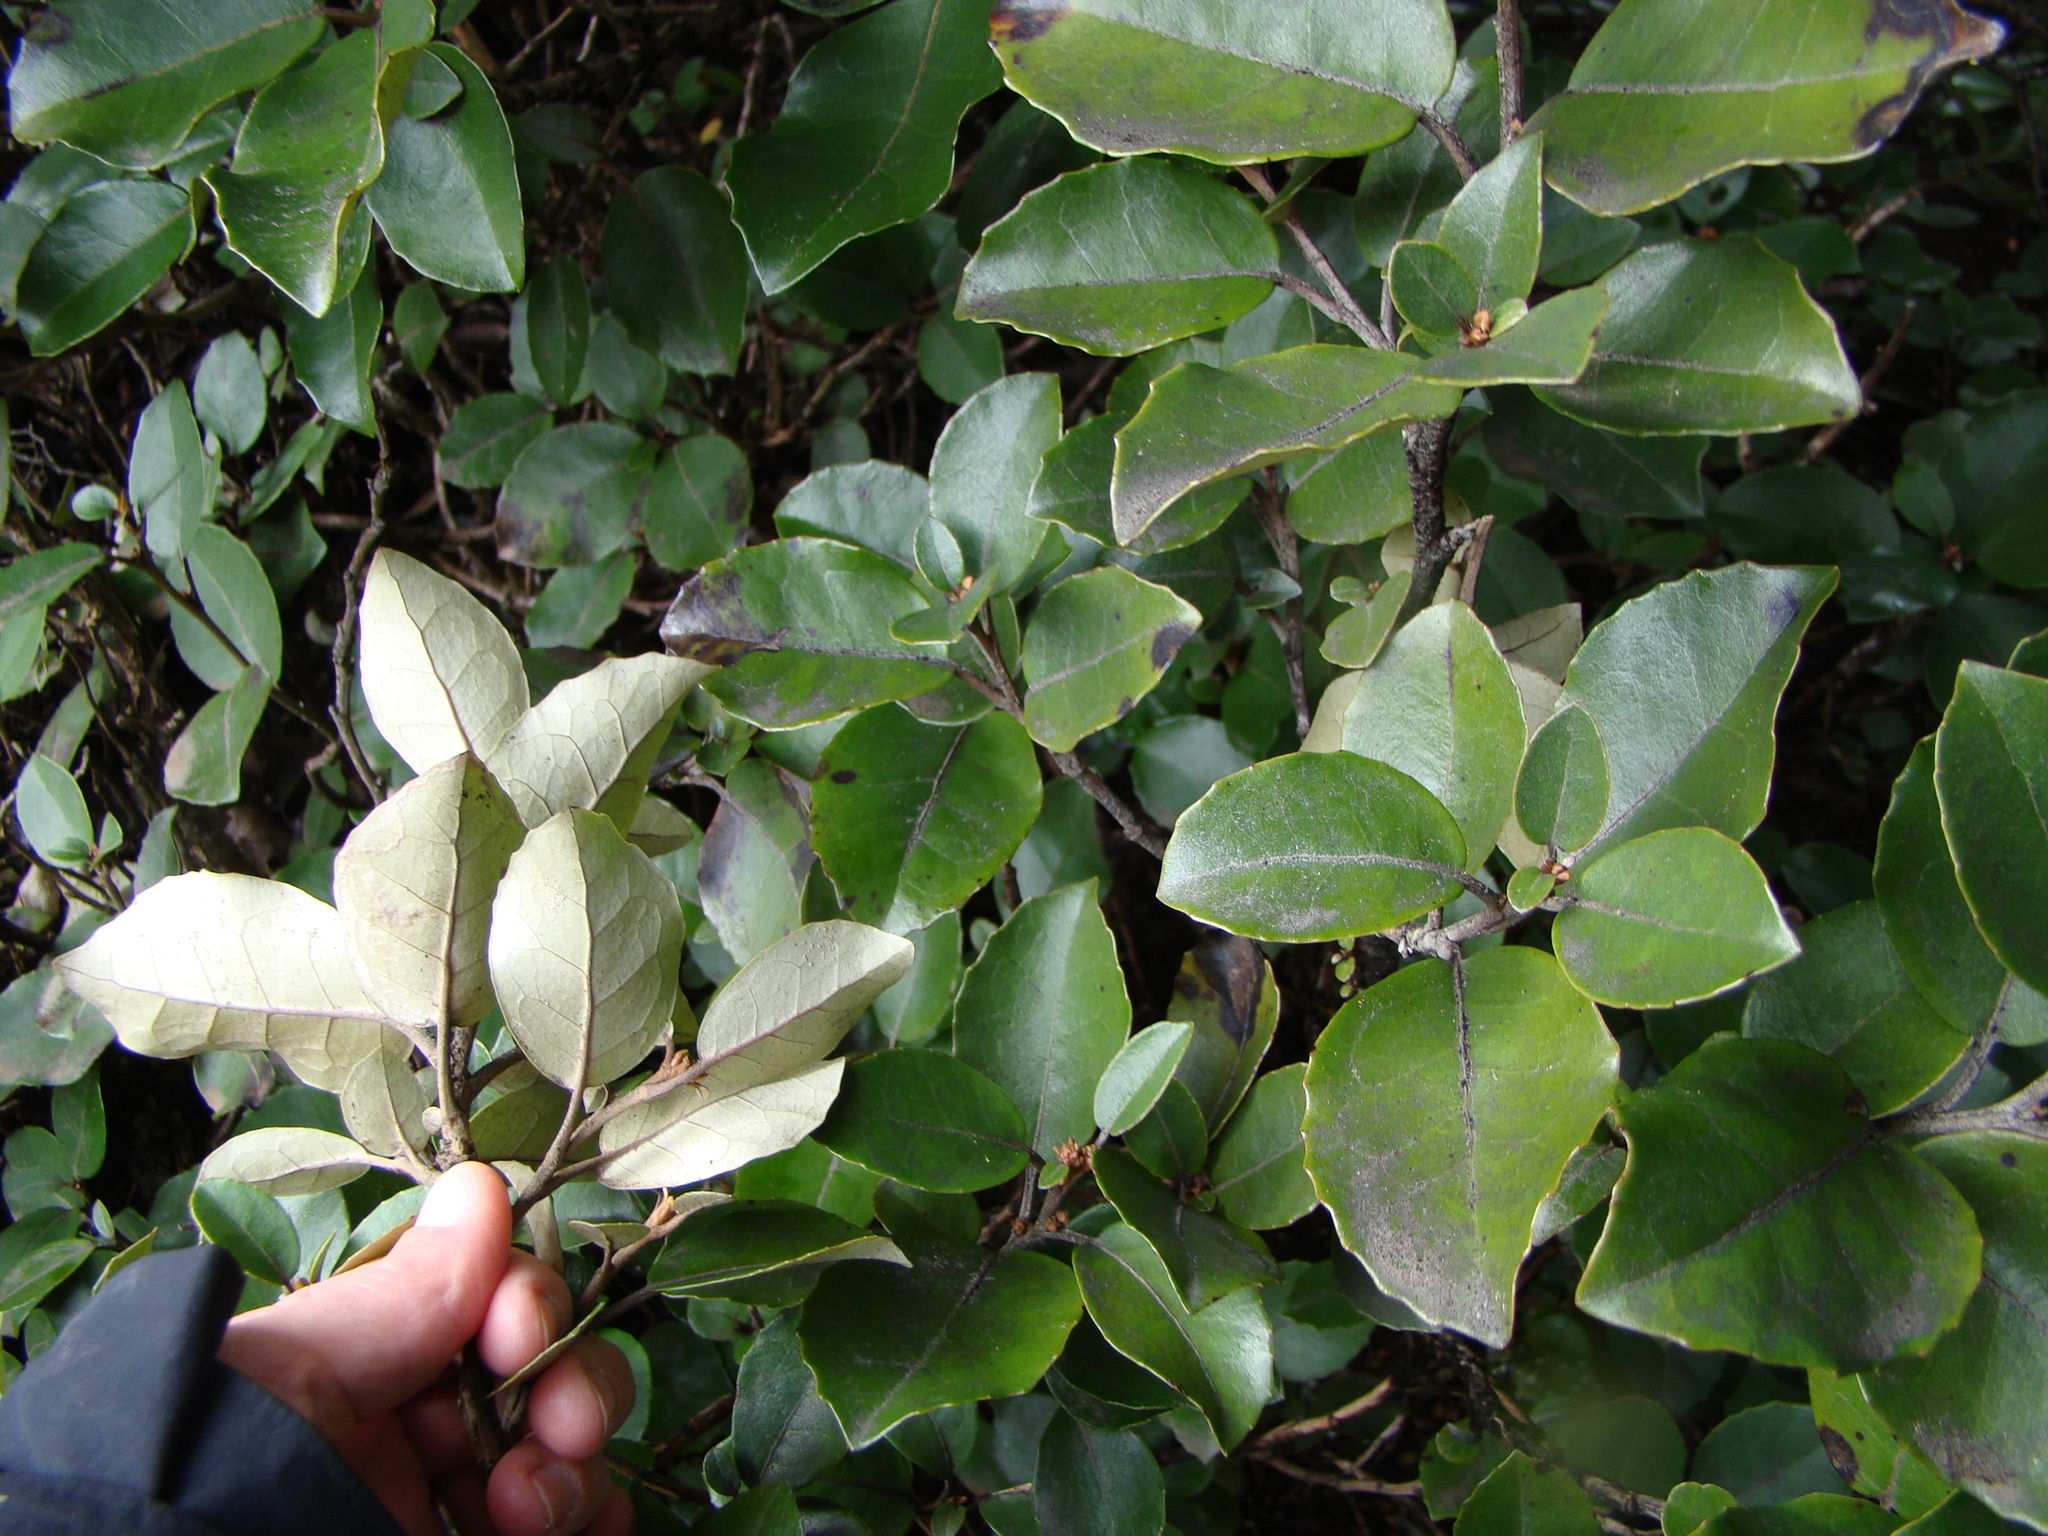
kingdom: Plantae
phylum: Tracheophyta
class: Magnoliopsida
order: Asterales
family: Asteraceae
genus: Olearia
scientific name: Olearia arborescens
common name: Glossy tree daisy
